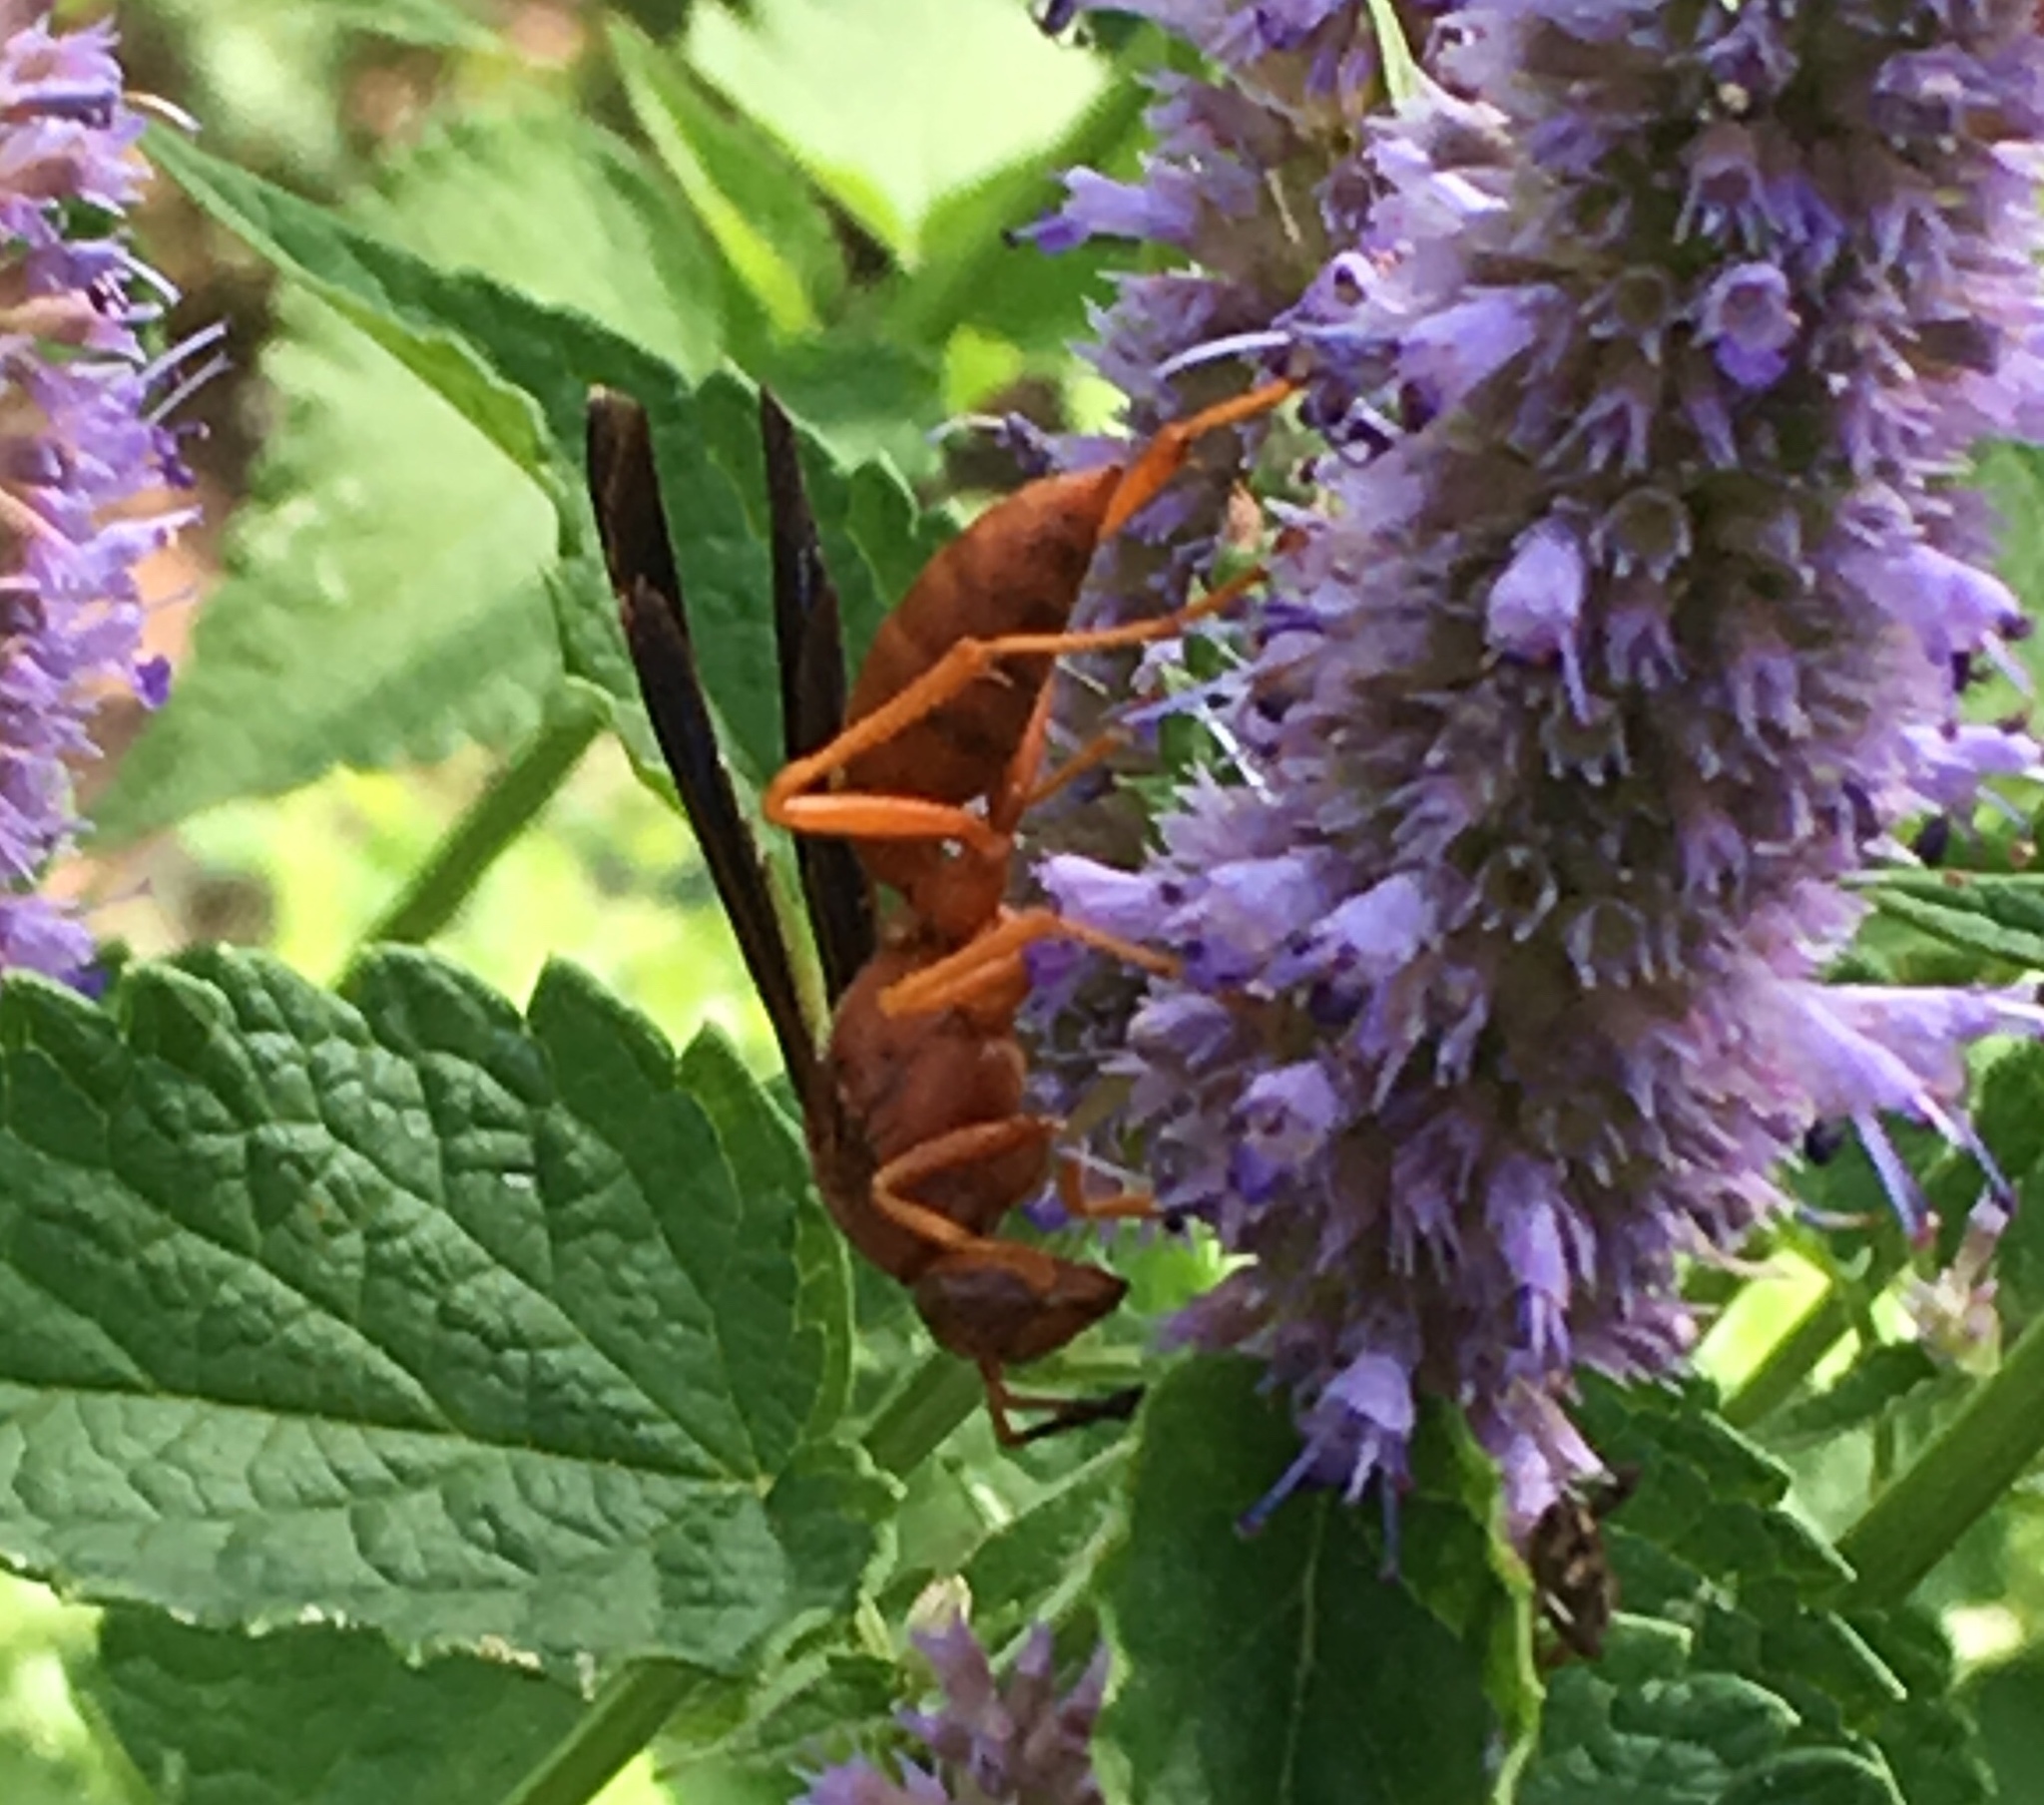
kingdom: Animalia
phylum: Arthropoda
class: Insecta
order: Hymenoptera
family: Vespidae
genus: Fuscopolistes
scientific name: Fuscopolistes
